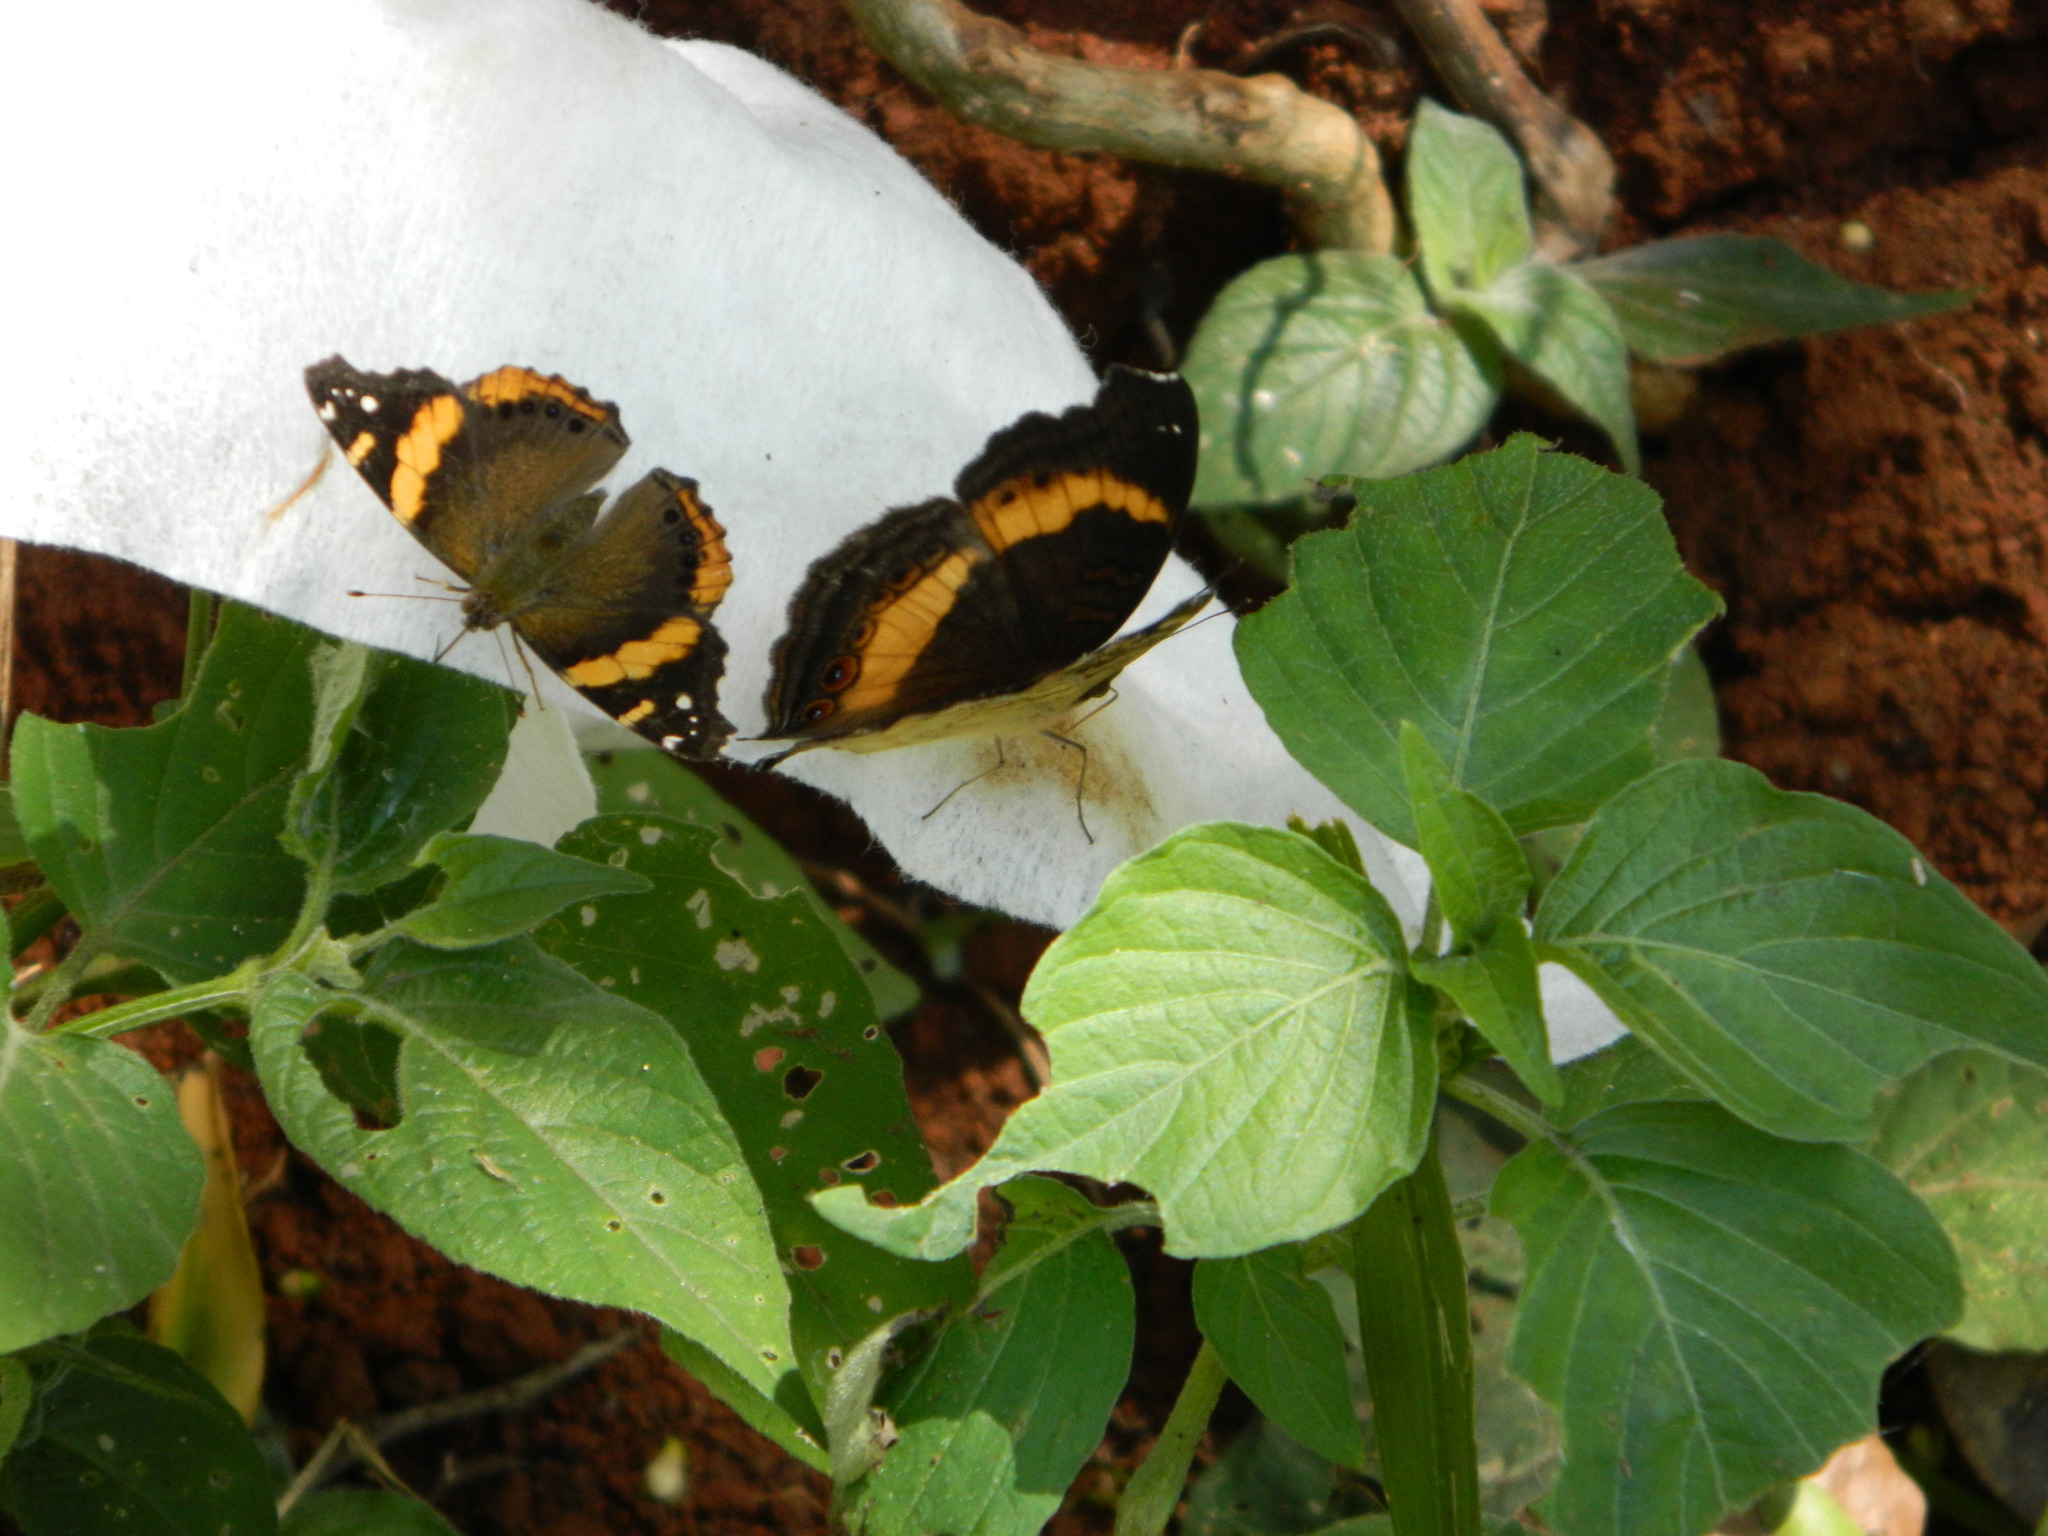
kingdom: Animalia
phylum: Arthropoda
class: Insecta
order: Lepidoptera
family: Nymphalidae
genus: Vanessa
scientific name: Vanessa abyssinica
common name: Abyssinian admiral
